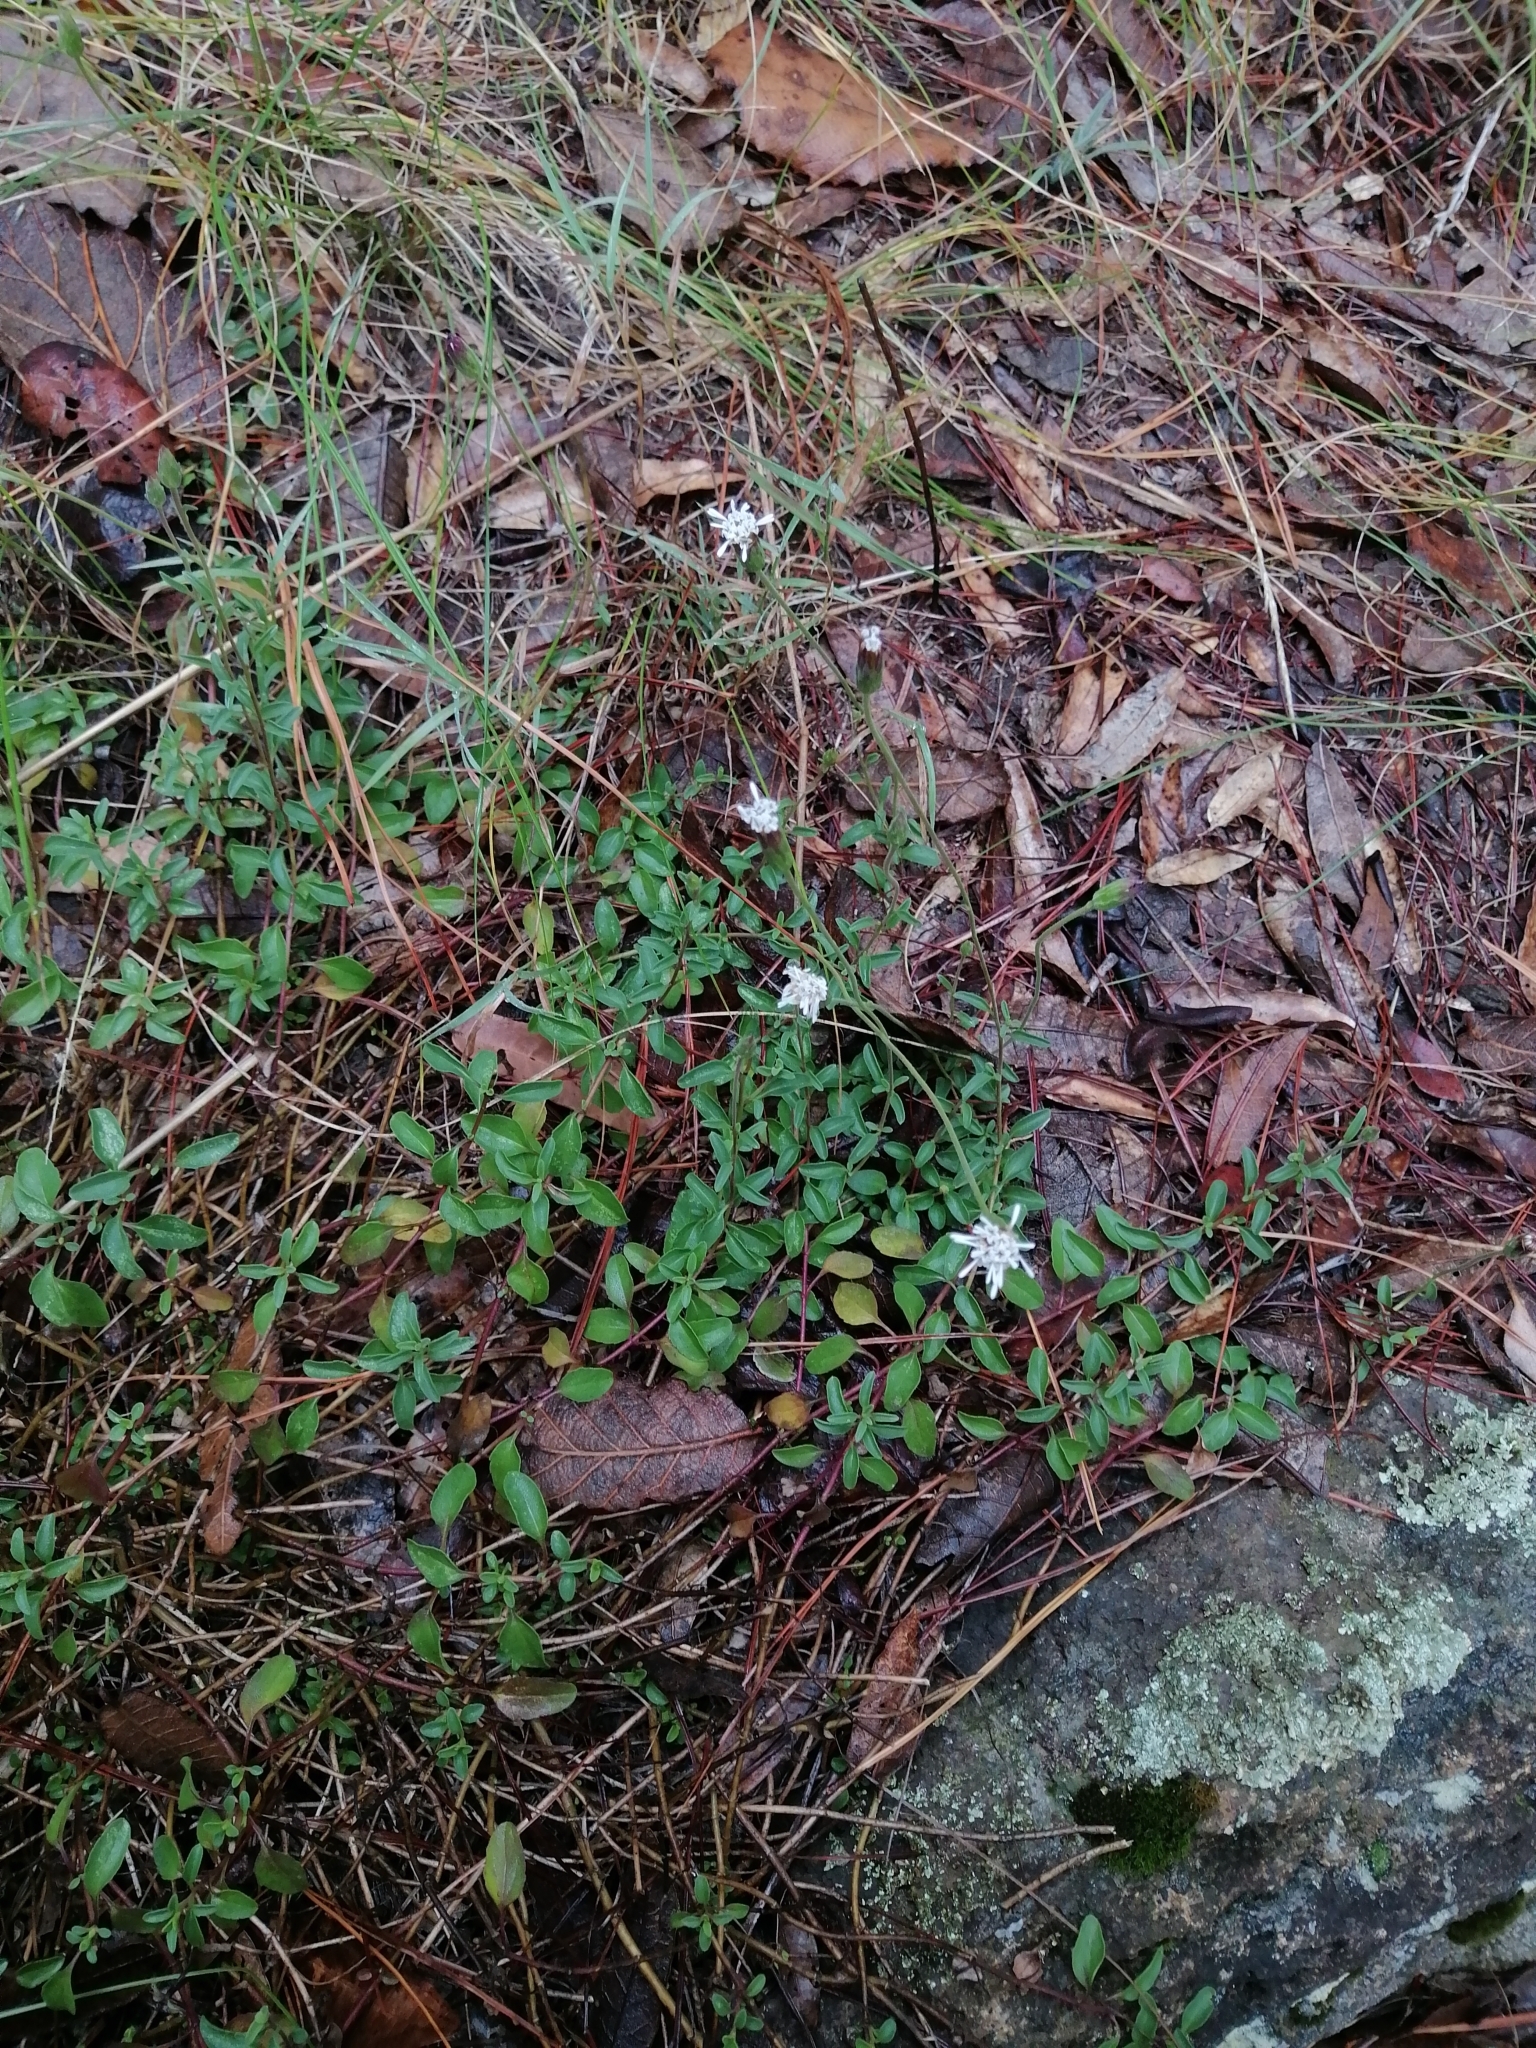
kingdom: Plantae
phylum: Tracheophyta
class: Magnoliopsida
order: Asterales
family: Asteraceae
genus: Brickellia
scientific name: Brickellia pedunculosa
